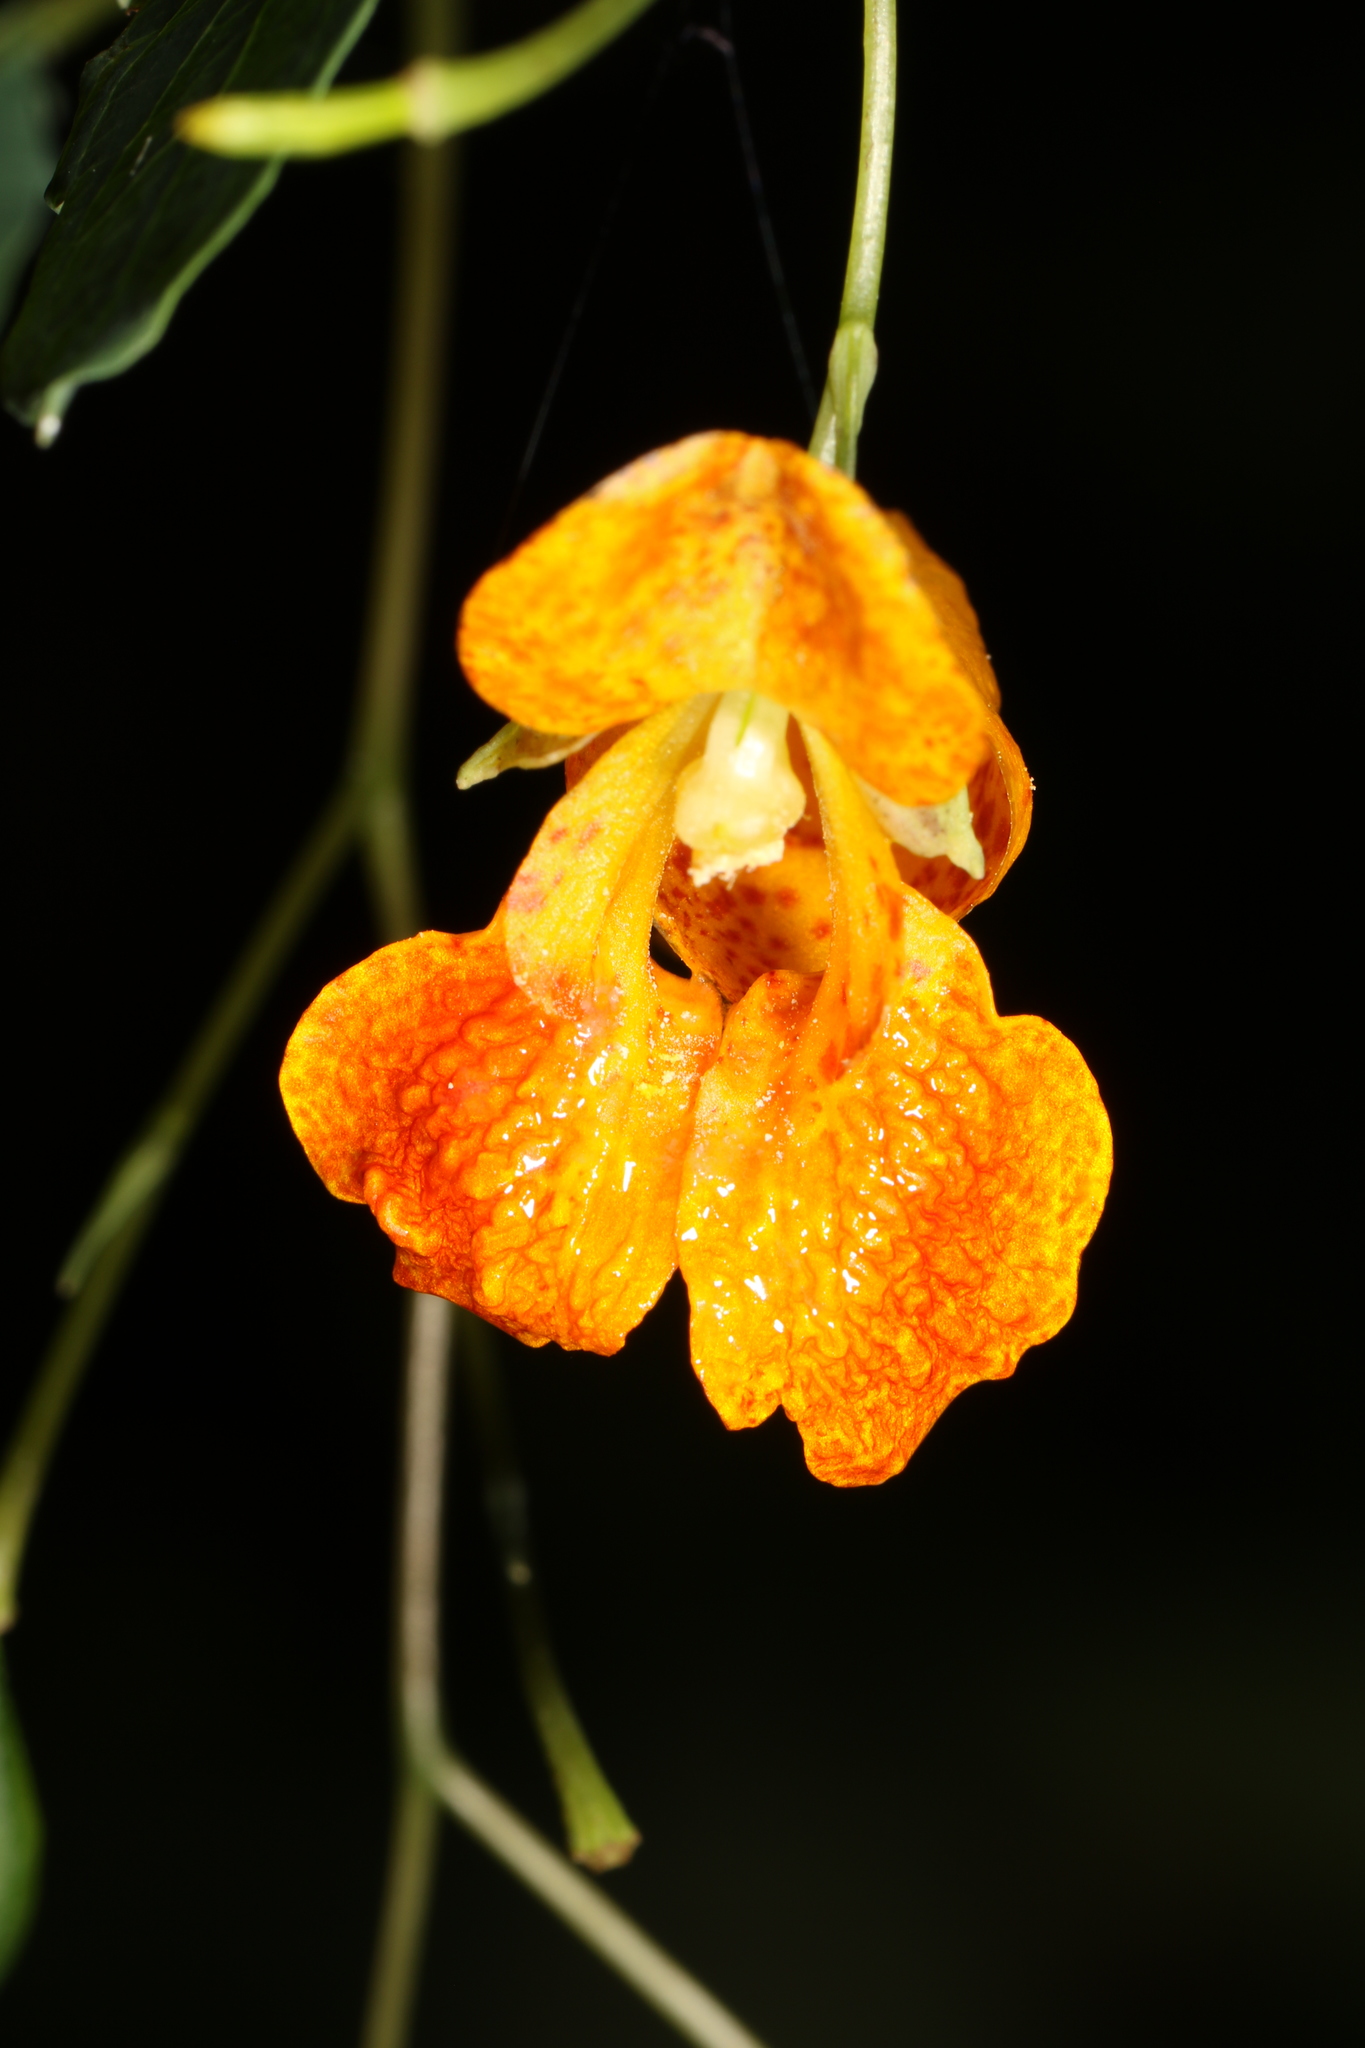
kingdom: Plantae
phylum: Tracheophyta
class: Magnoliopsida
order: Ericales
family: Balsaminaceae
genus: Impatiens
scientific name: Impatiens capensis
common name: Orange balsam
